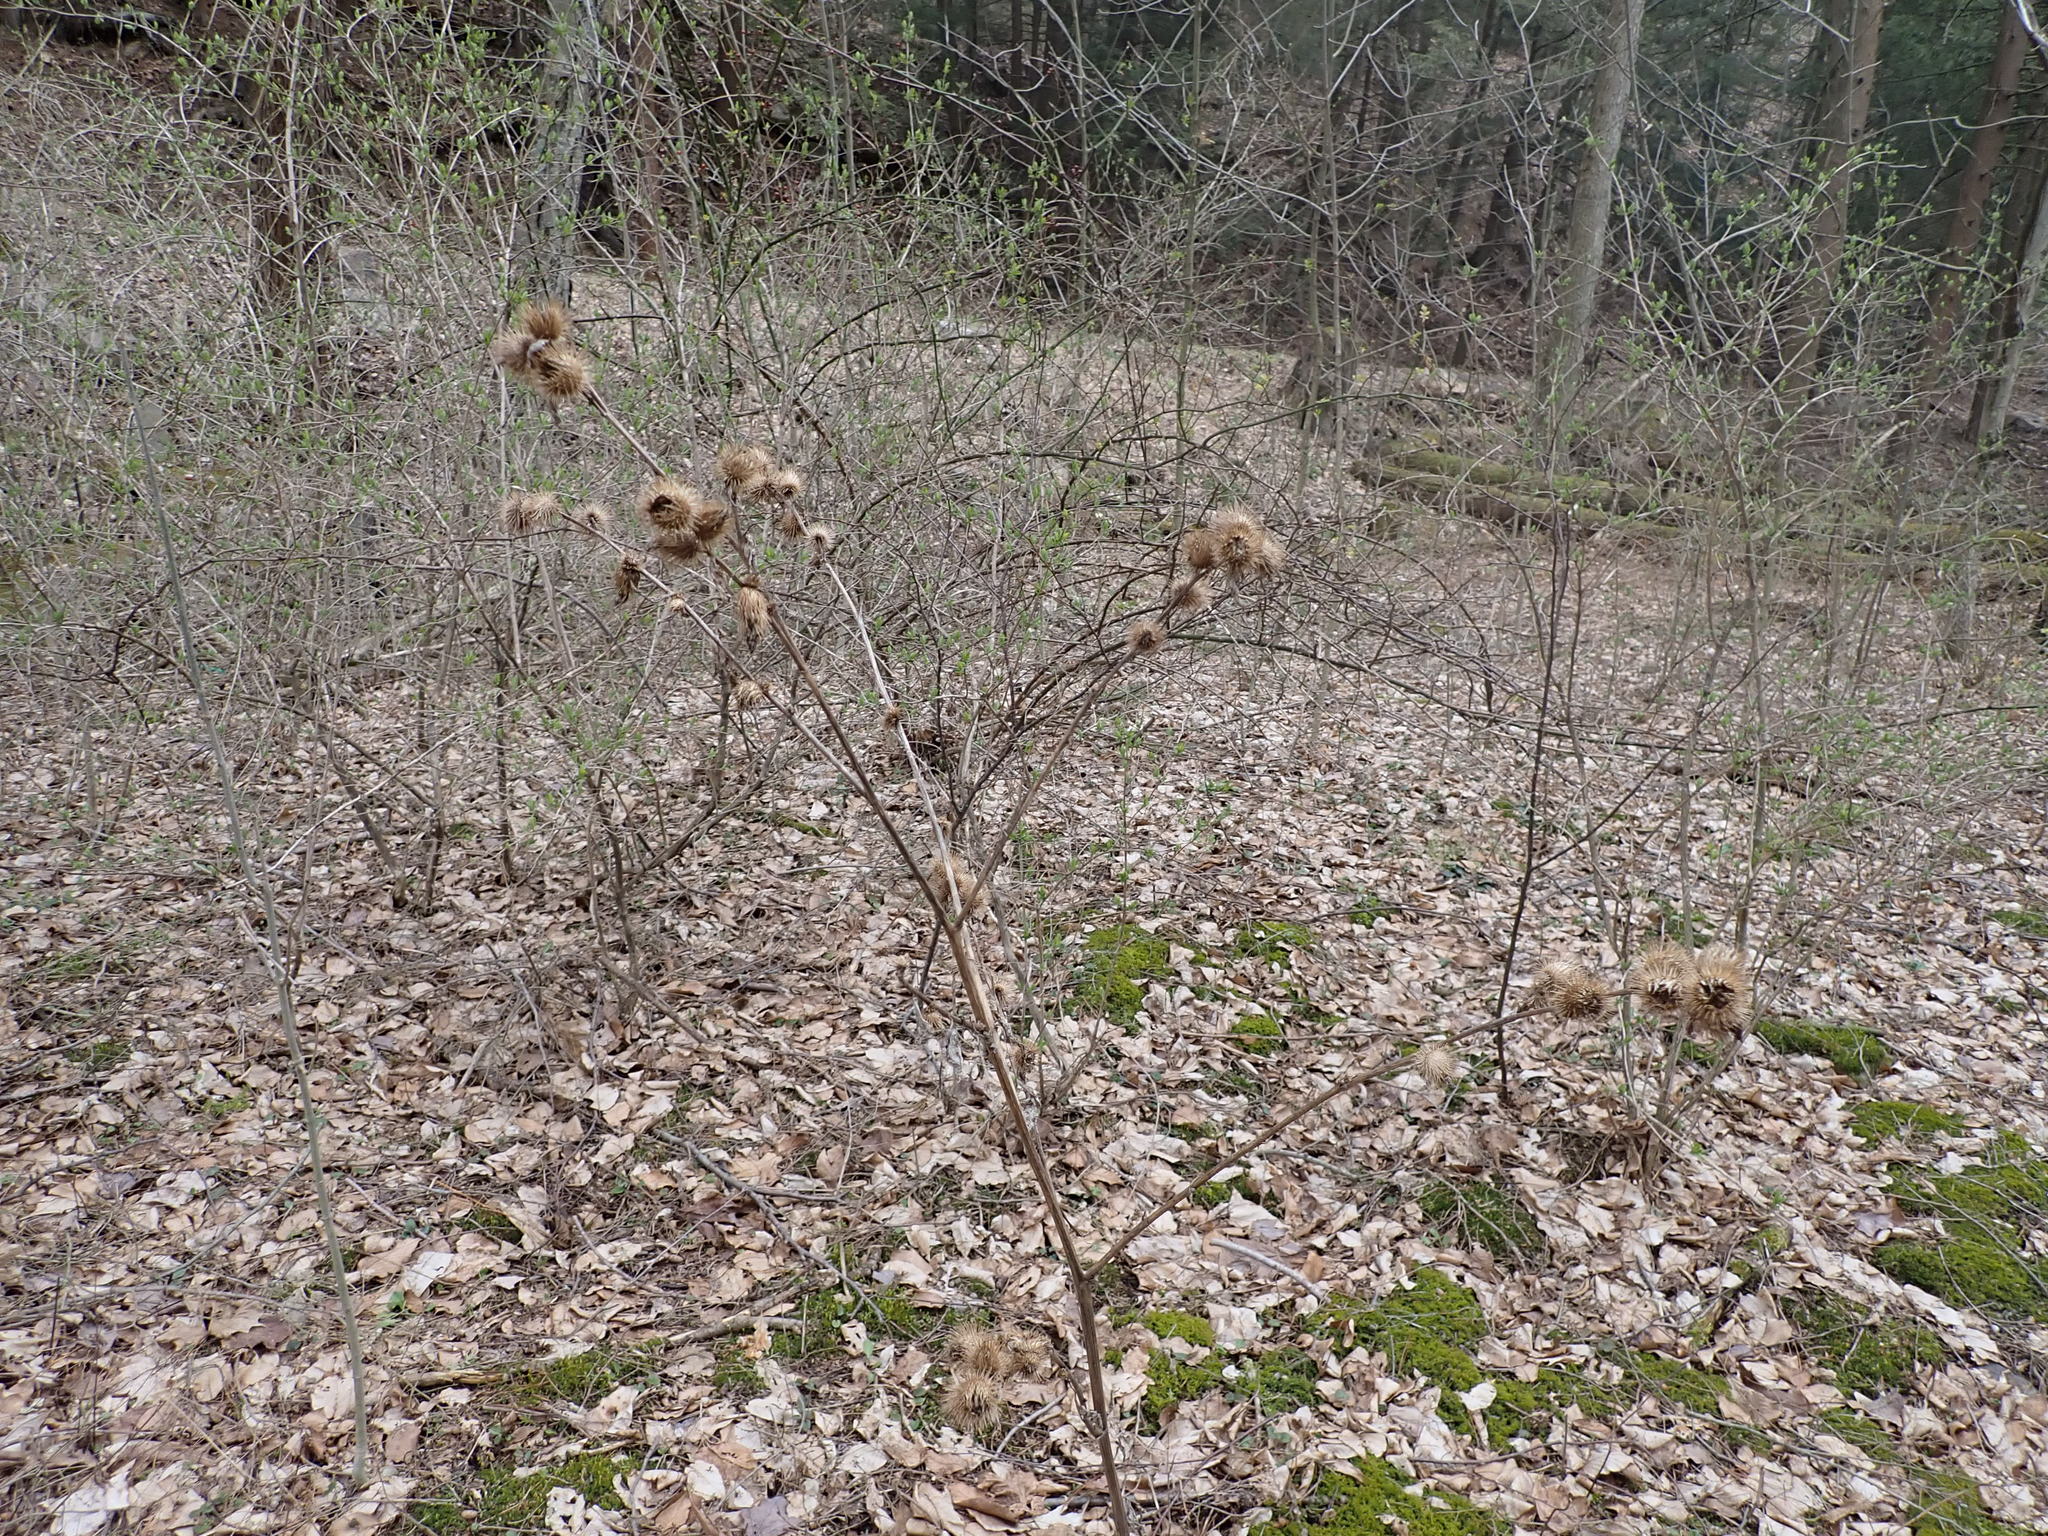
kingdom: Plantae
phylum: Tracheophyta
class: Magnoliopsida
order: Asterales
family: Asteraceae
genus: Arctium
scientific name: Arctium minus
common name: Lesser burdock
